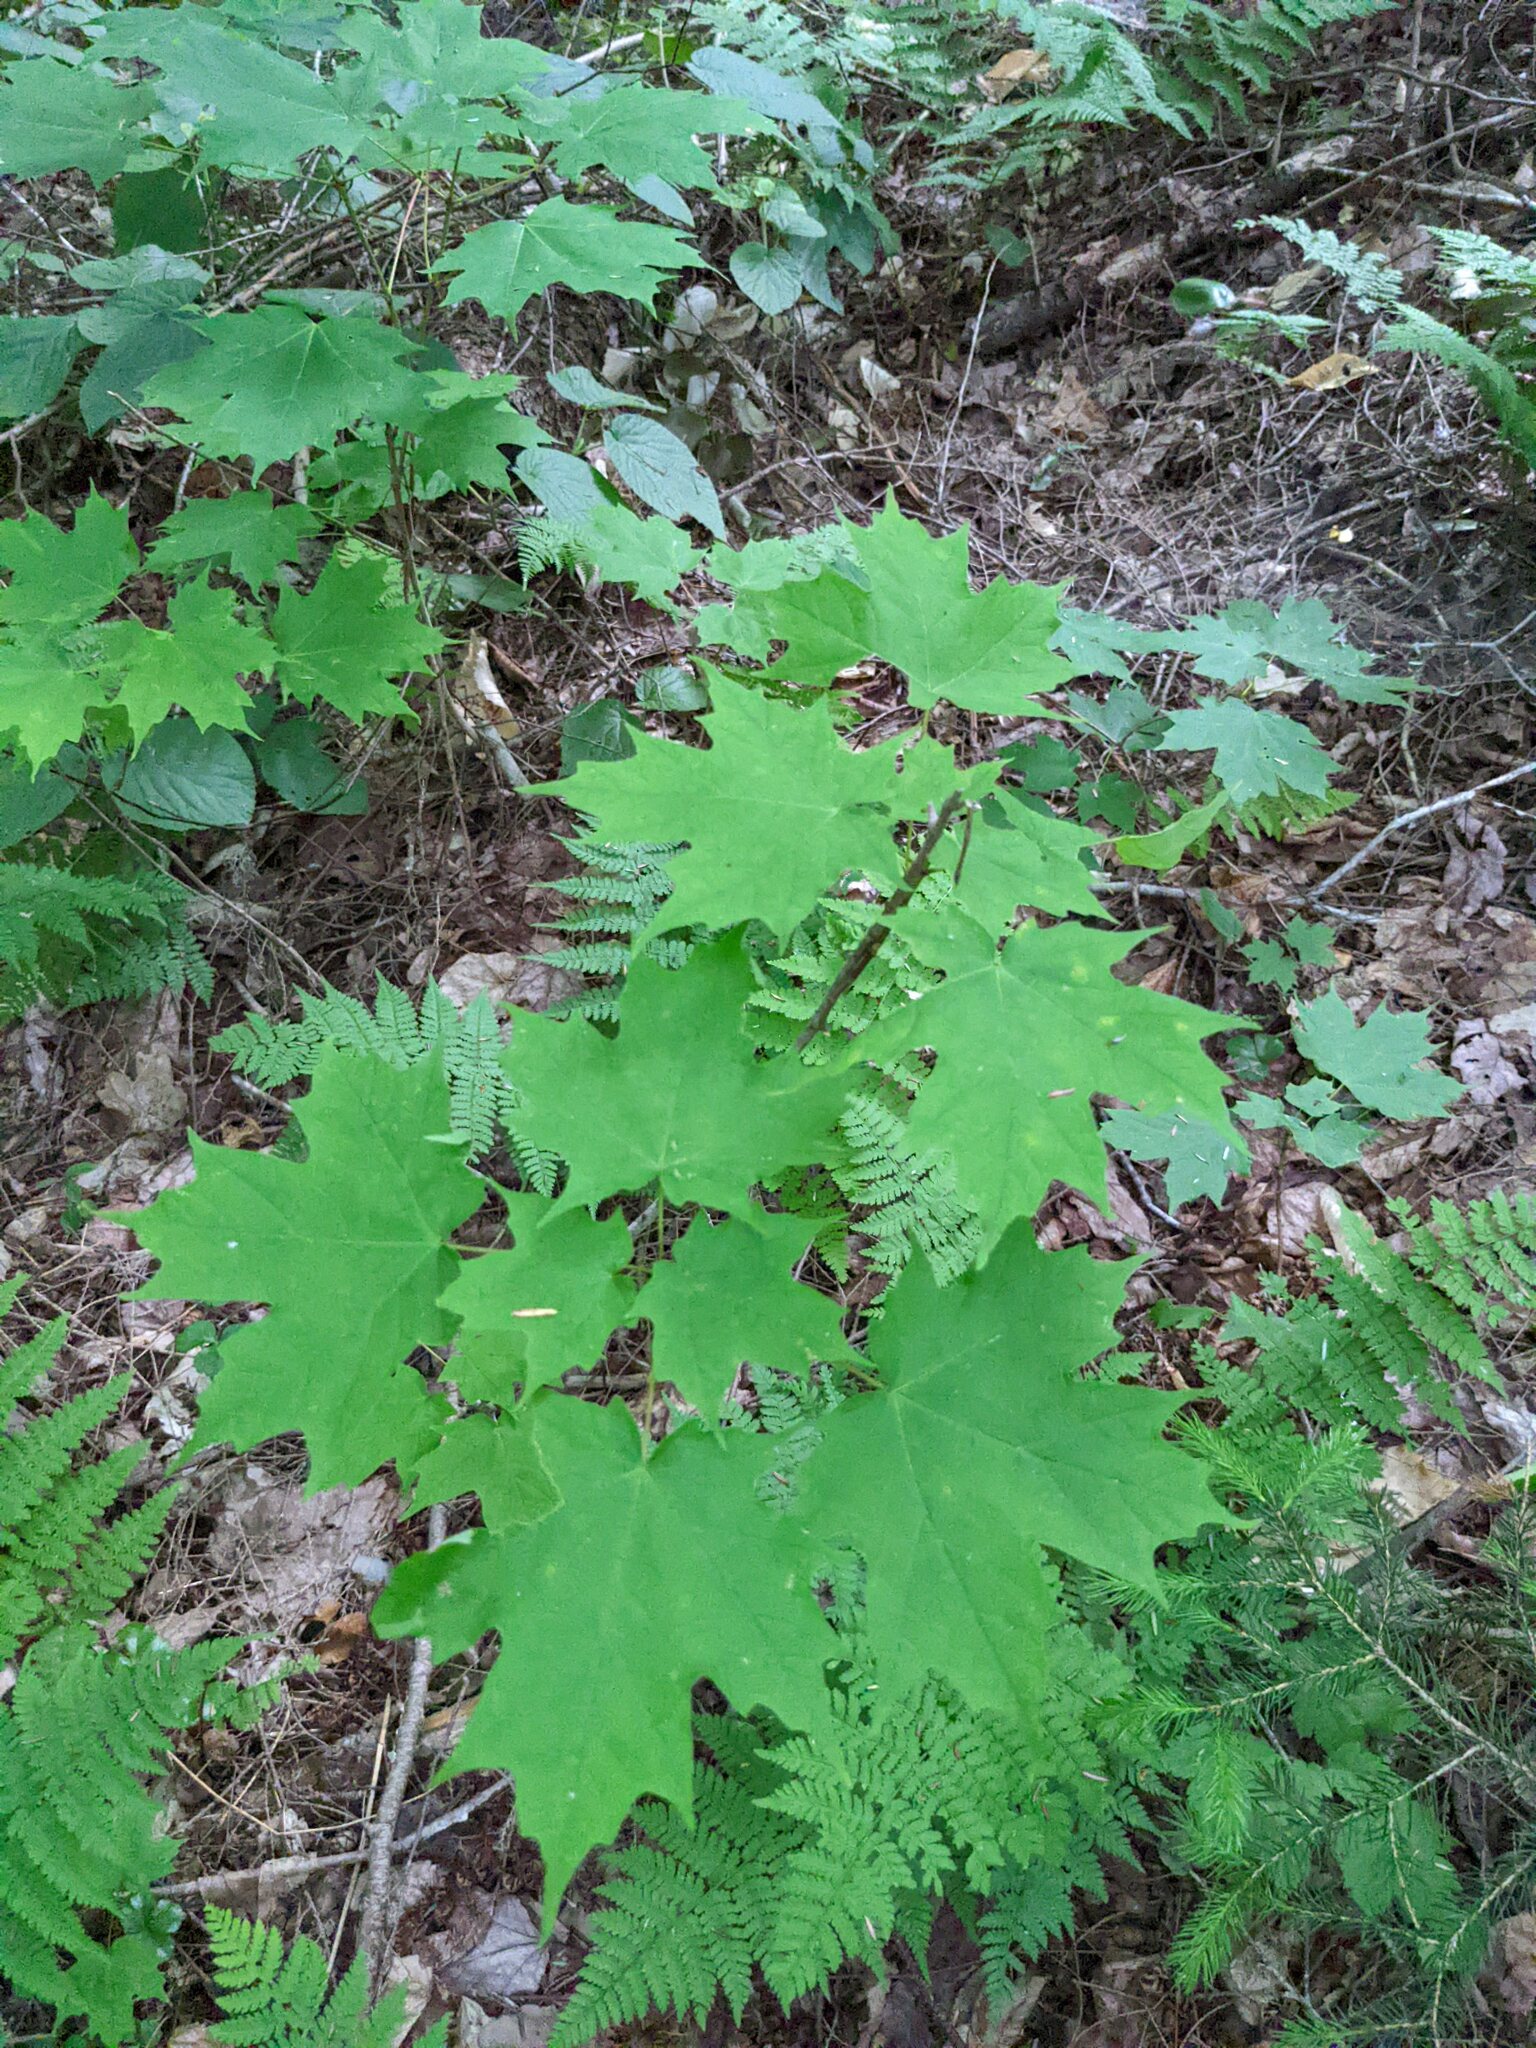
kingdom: Plantae
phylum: Tracheophyta
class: Magnoliopsida
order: Sapindales
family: Sapindaceae
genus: Acer
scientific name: Acer saccharum
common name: Sugar maple
